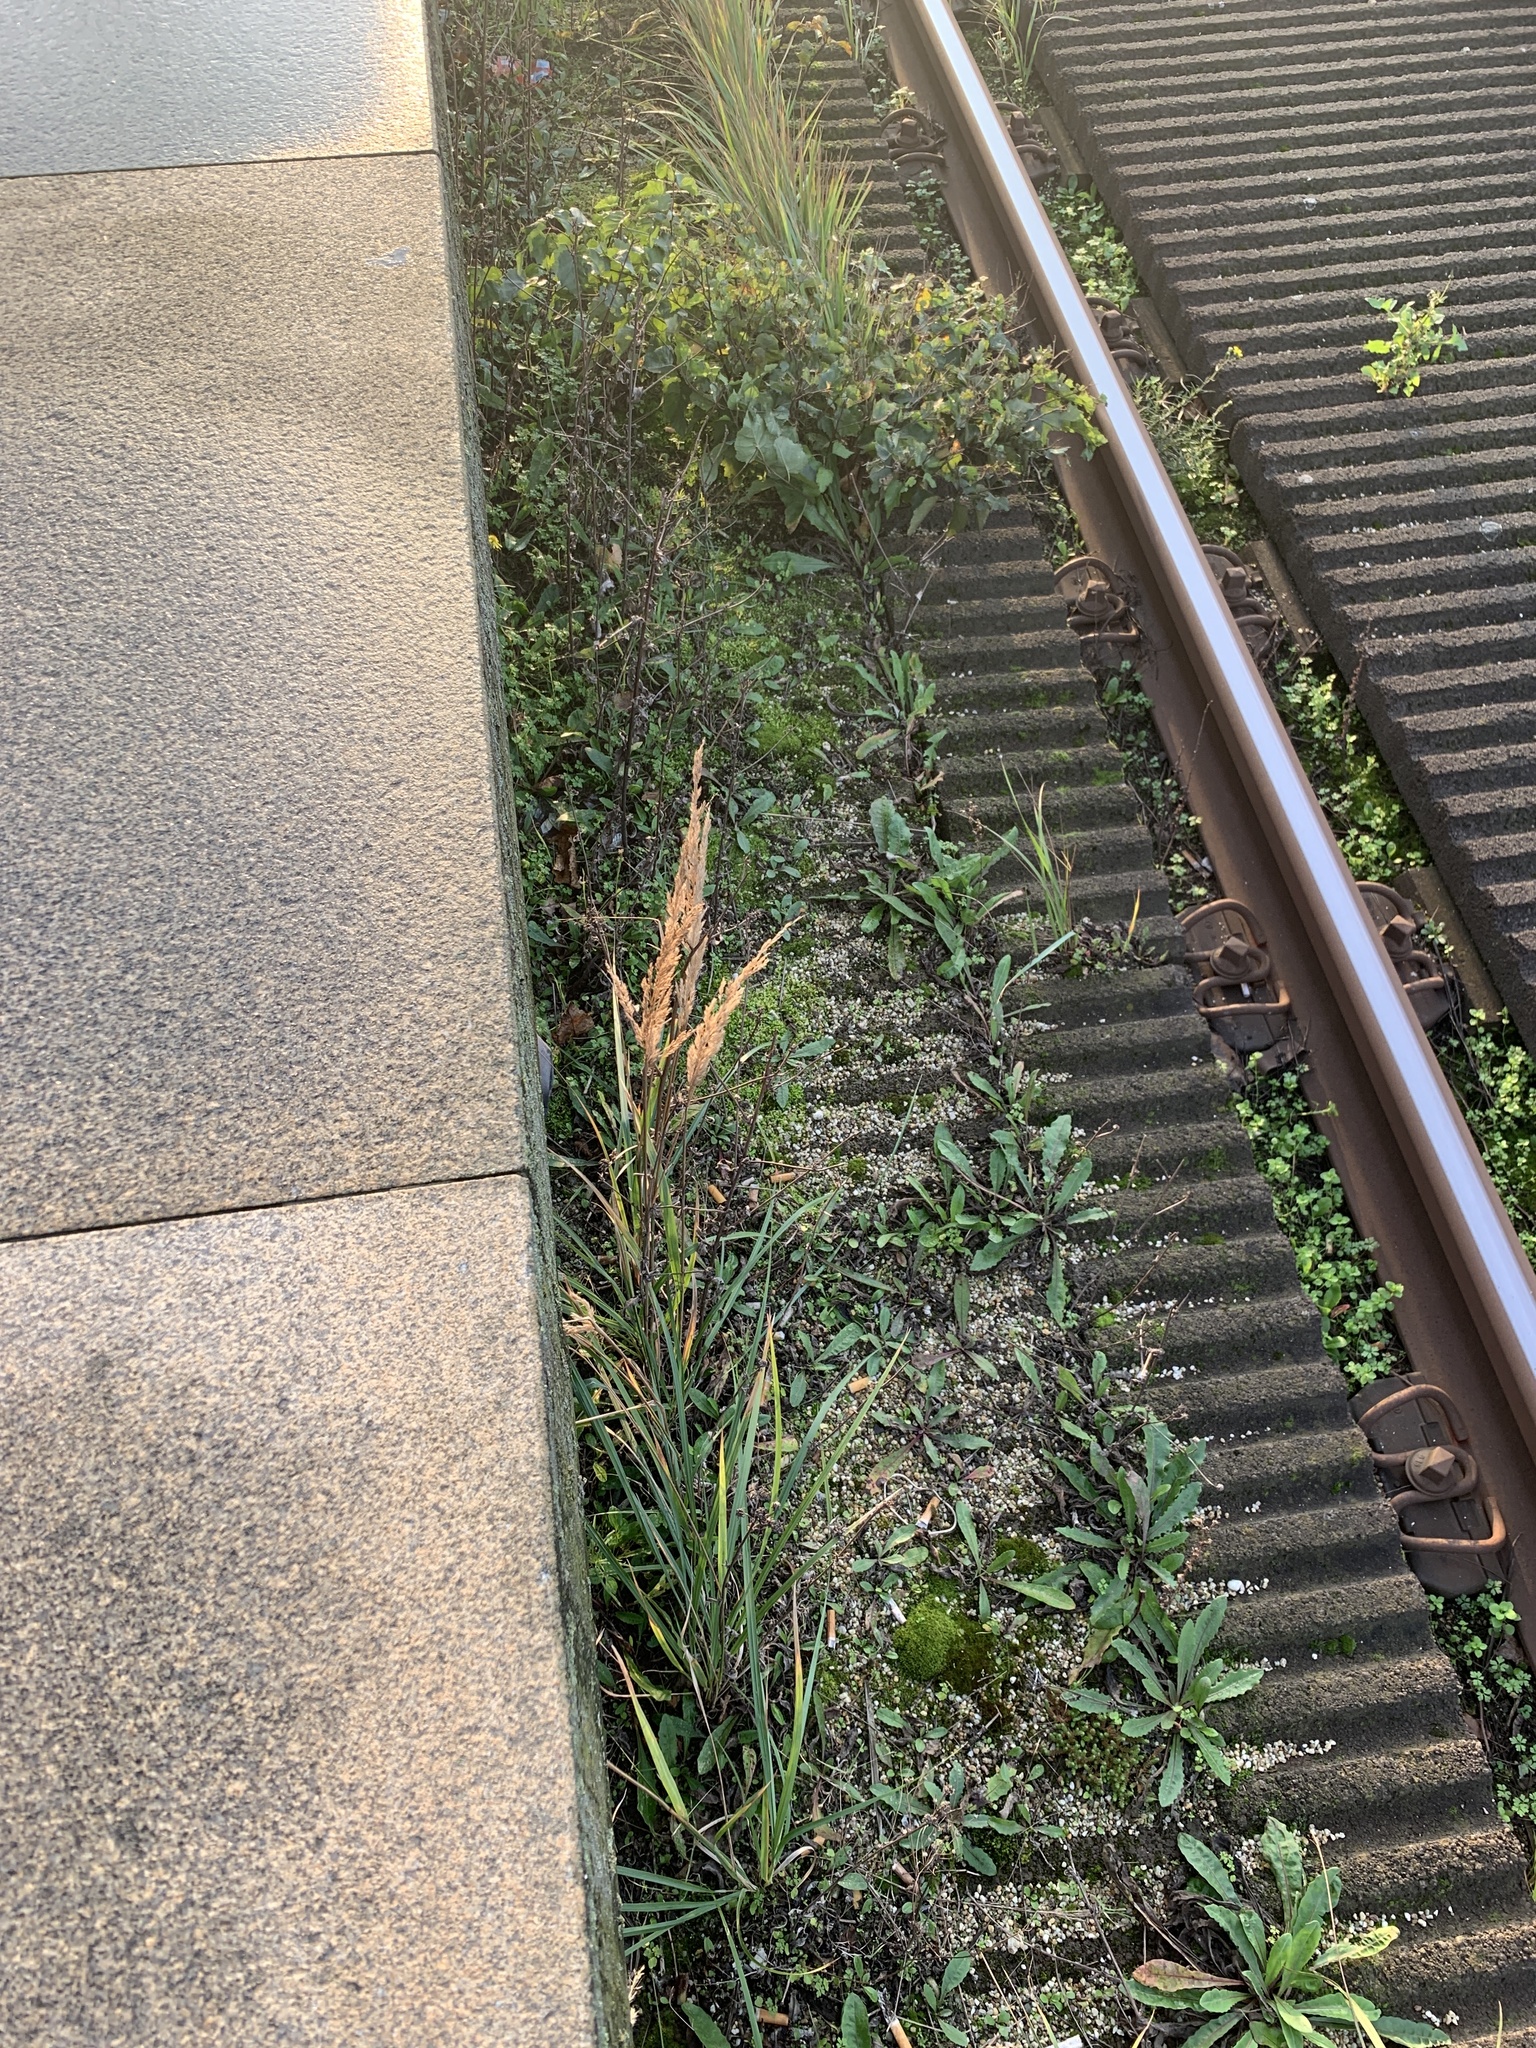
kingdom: Plantae
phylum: Tracheophyta
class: Liliopsida
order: Poales
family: Poaceae
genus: Calamagrostis
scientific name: Calamagrostis epigejos
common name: Wood small-reed
